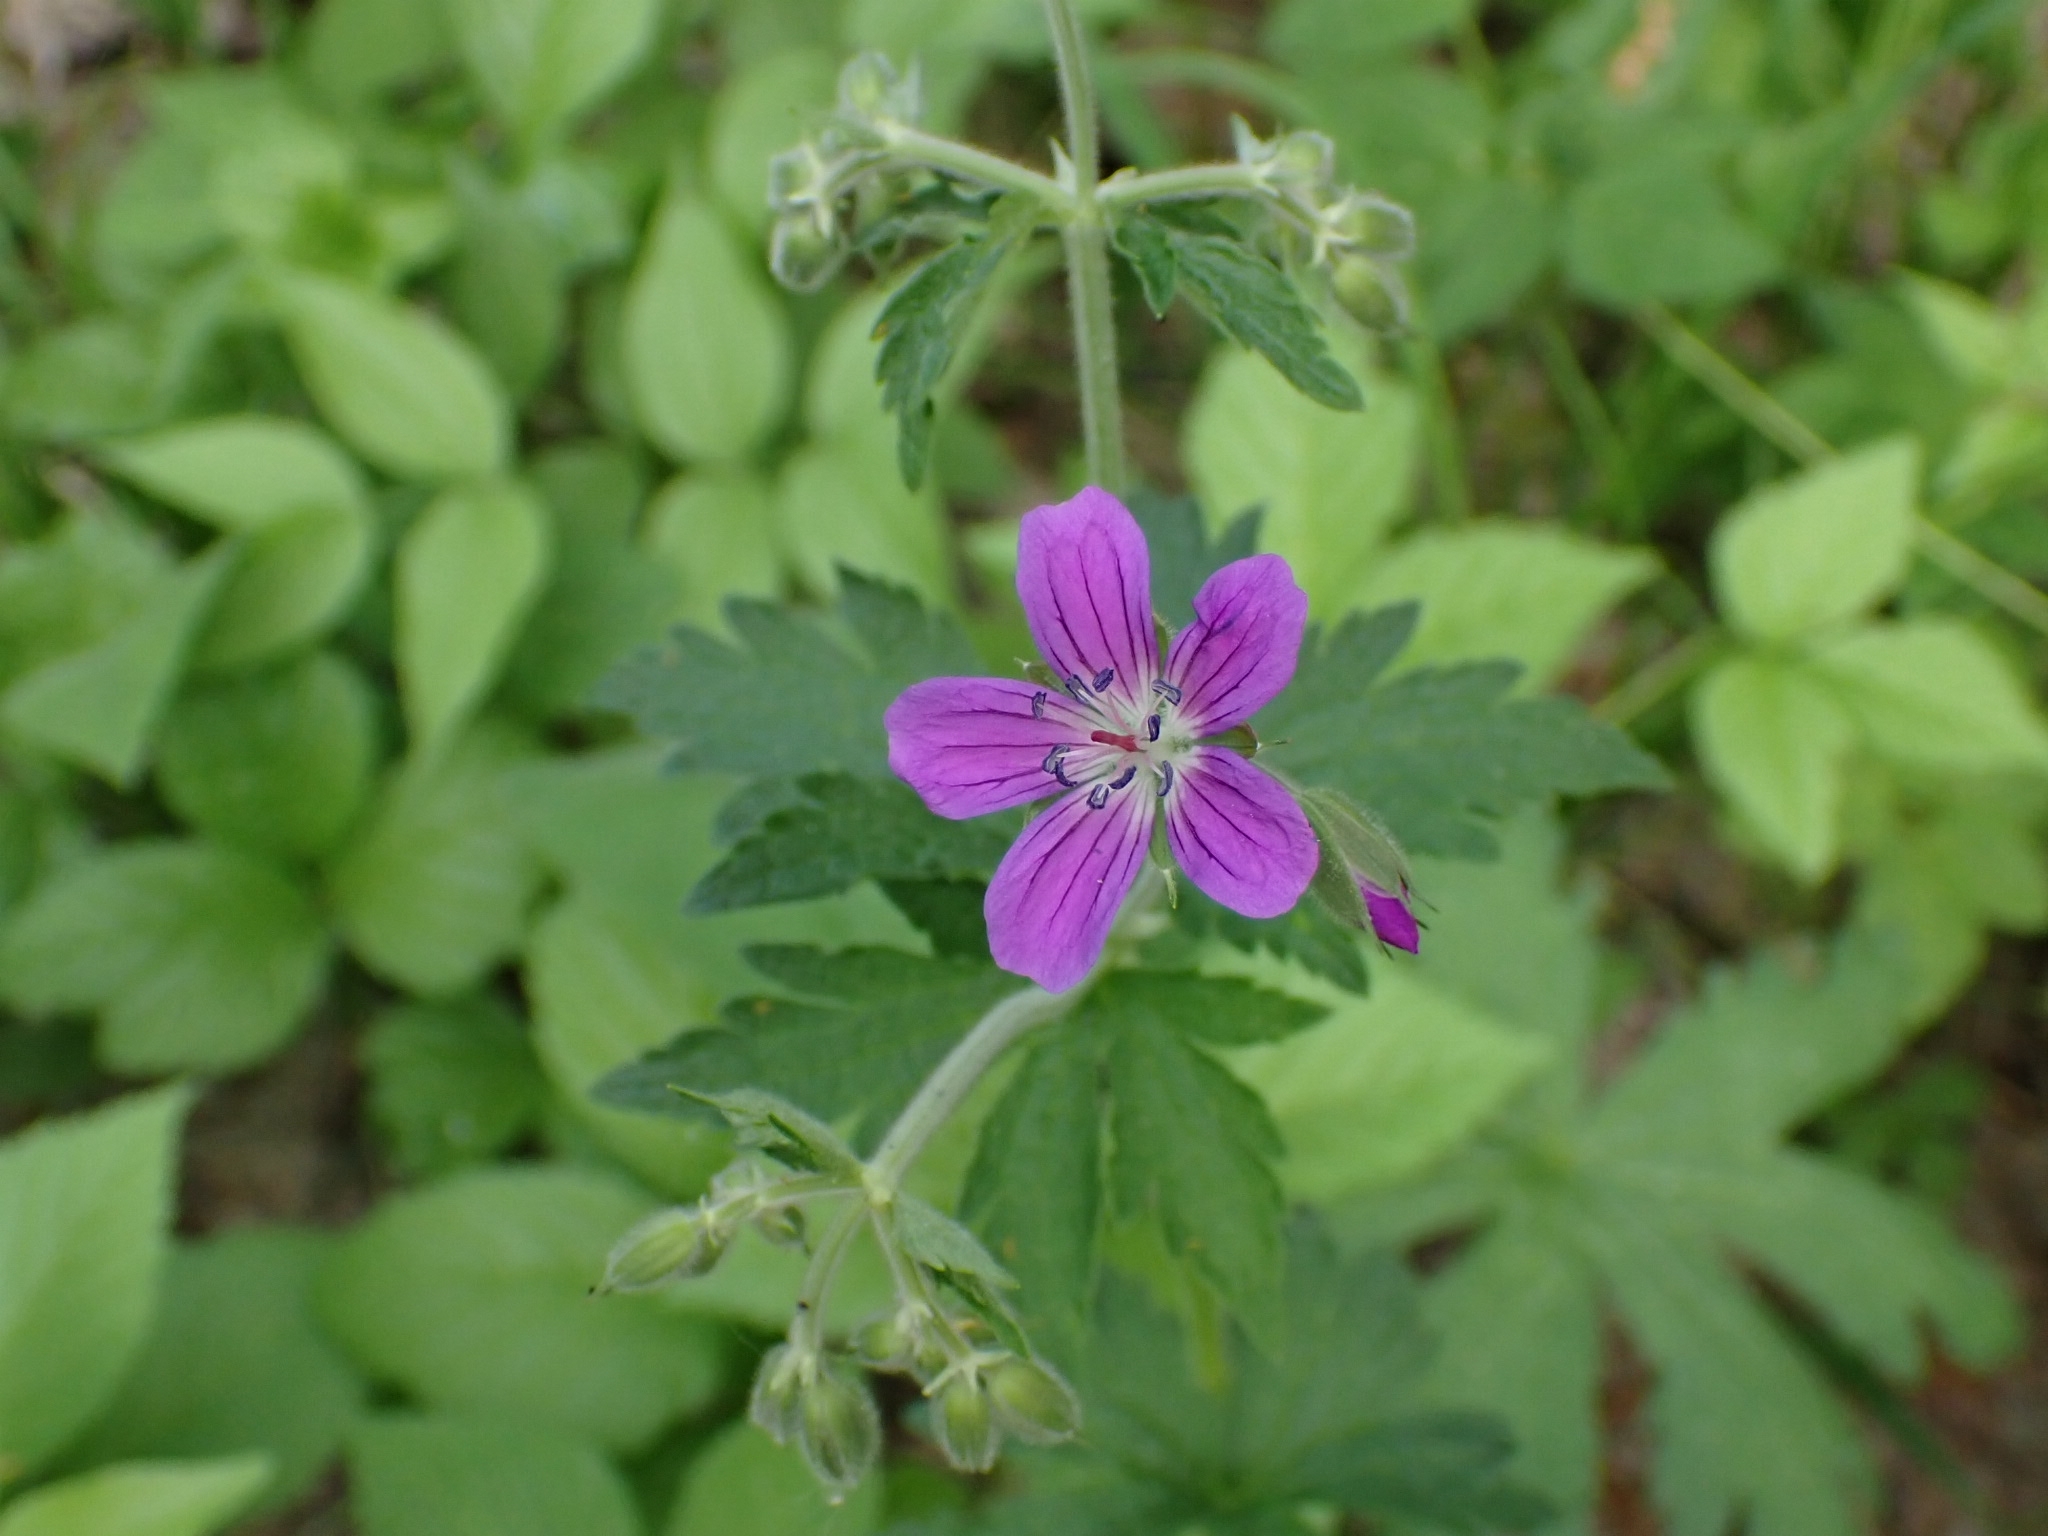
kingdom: Plantae
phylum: Tracheophyta
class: Magnoliopsida
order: Geraniales
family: Geraniaceae
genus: Geranium
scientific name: Geranium sylvaticum
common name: Wood crane's-bill
